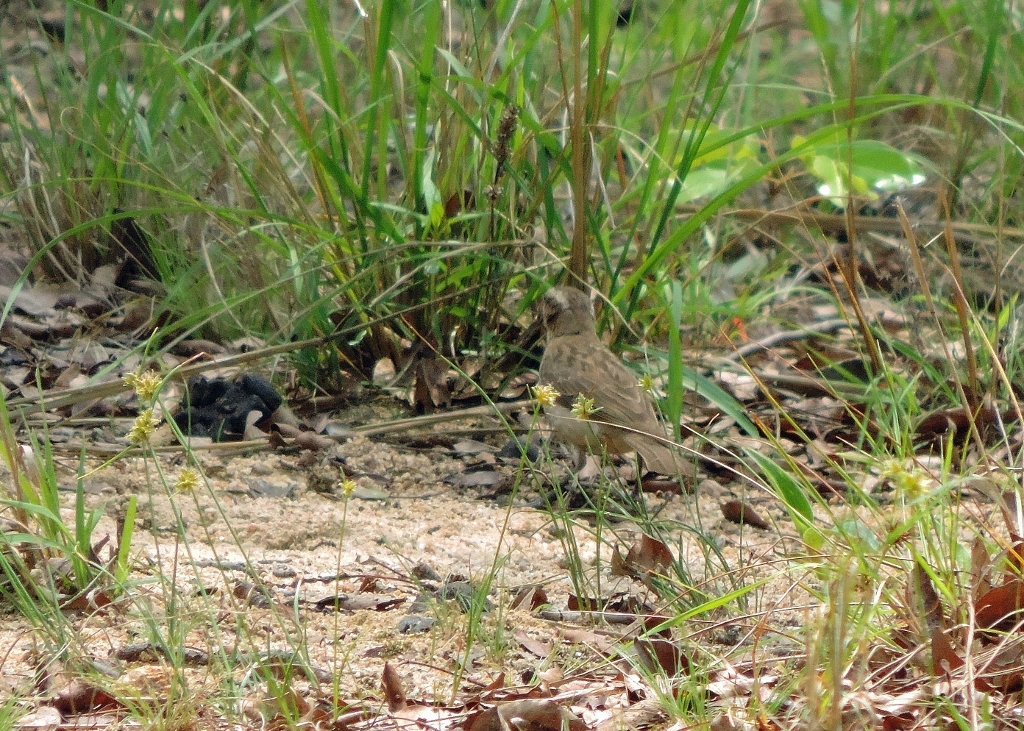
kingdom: Animalia
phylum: Chordata
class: Aves
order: Passeriformes
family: Passeridae
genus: Gymnoris
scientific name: Gymnoris superciliaris
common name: Yellow-throated petronia
